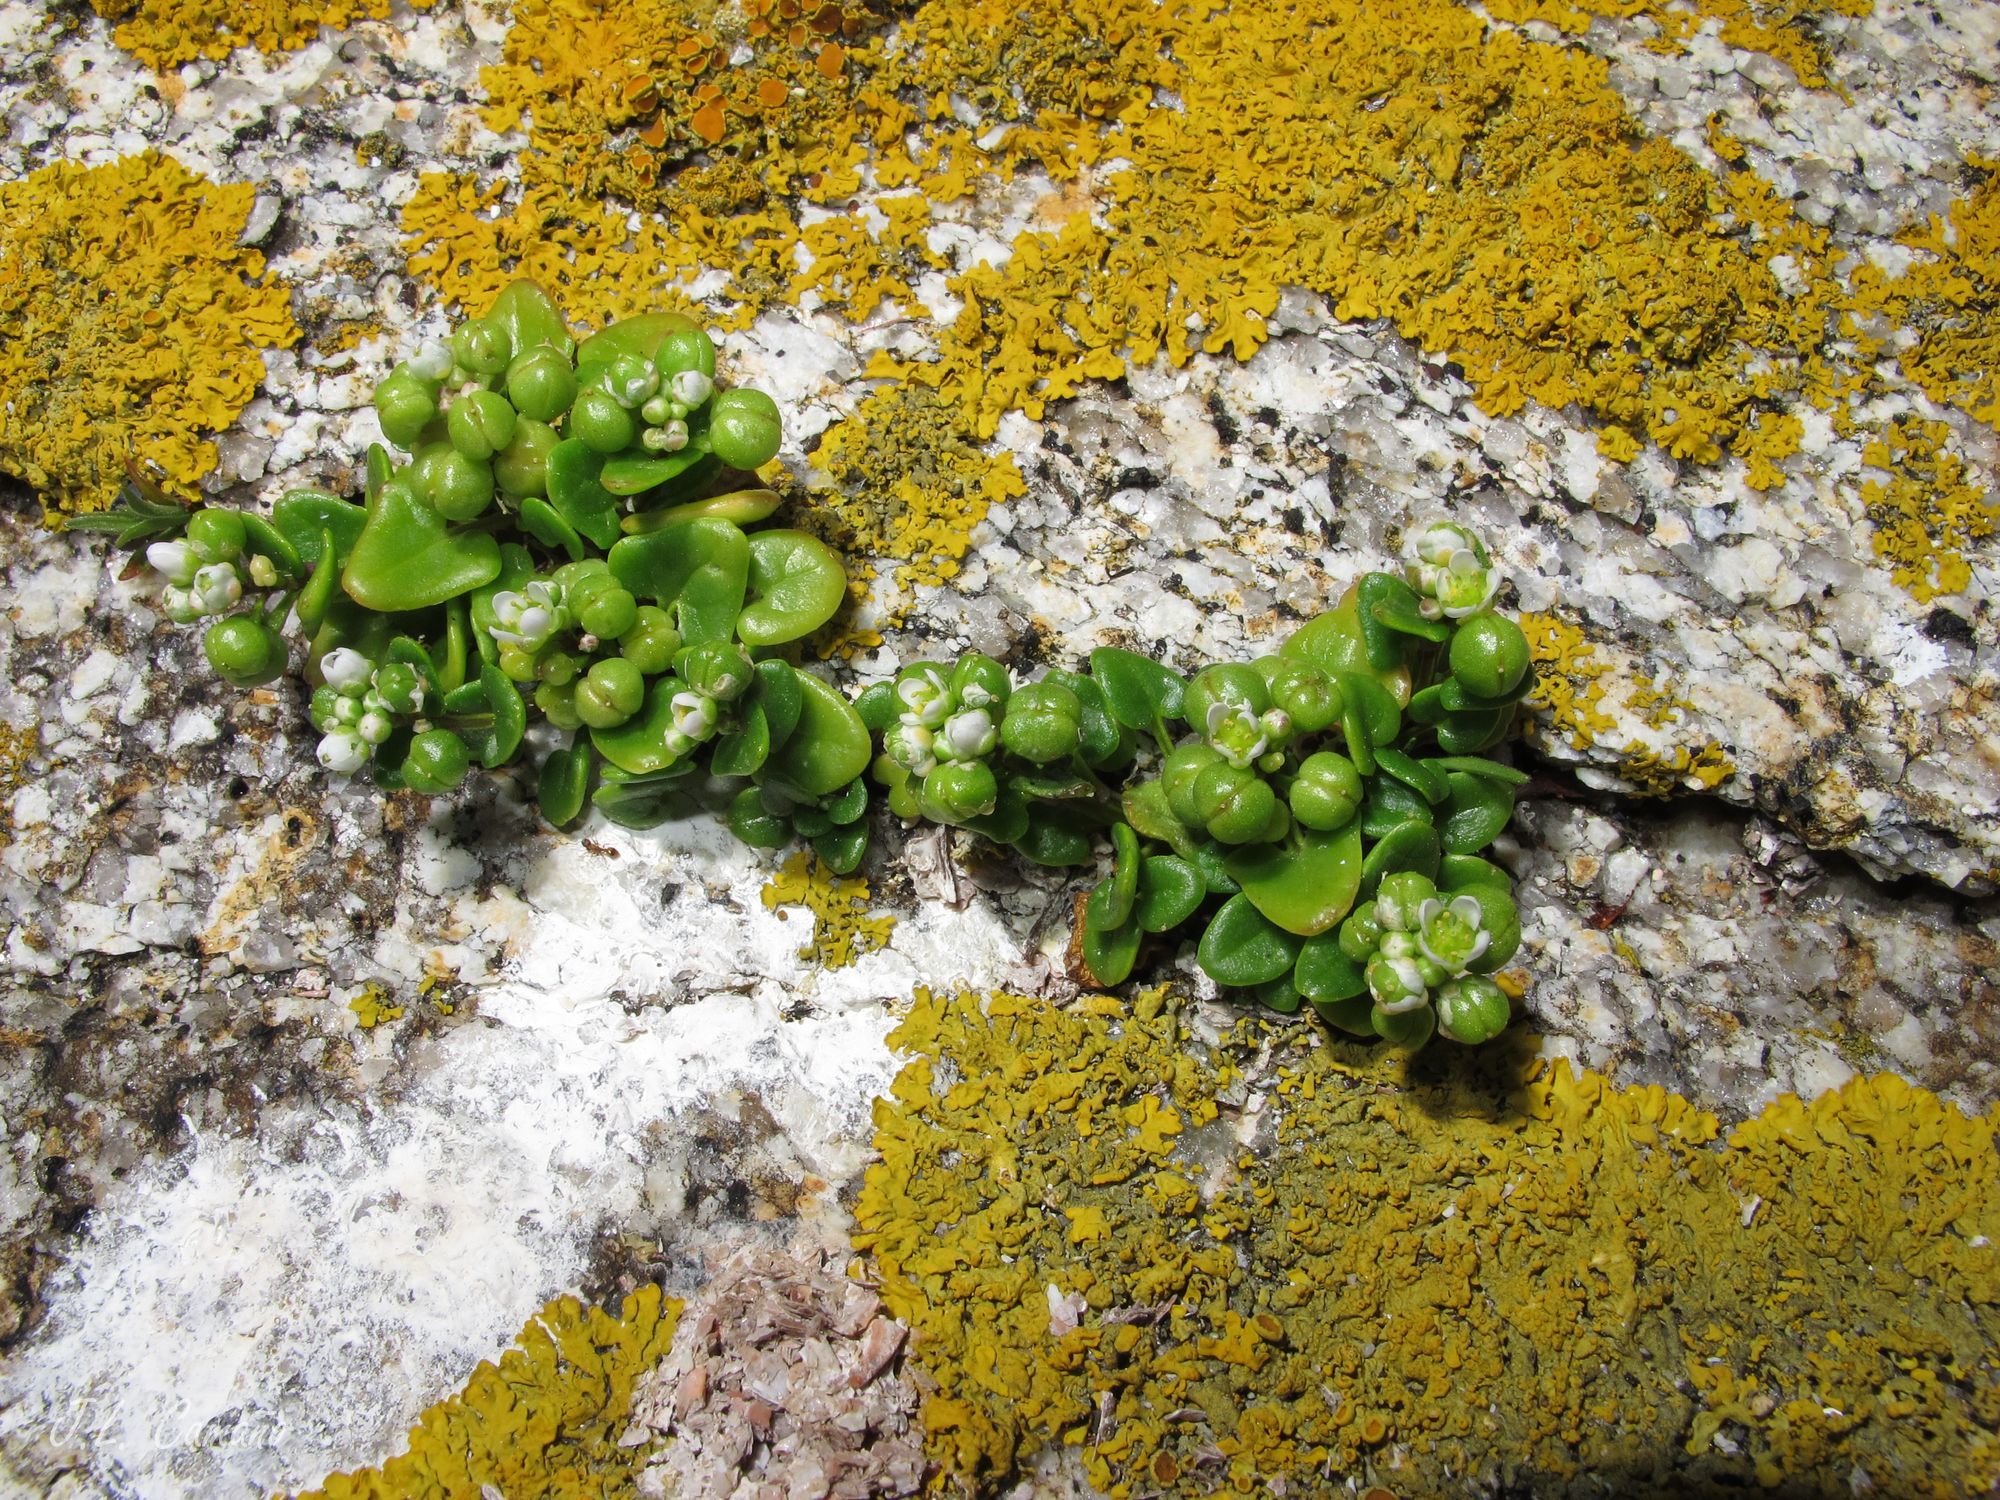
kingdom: Plantae
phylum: Tracheophyta
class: Magnoliopsida
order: Brassicales
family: Brassicaceae
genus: Cochlearia
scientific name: Cochlearia danica
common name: Early scurvygrass
